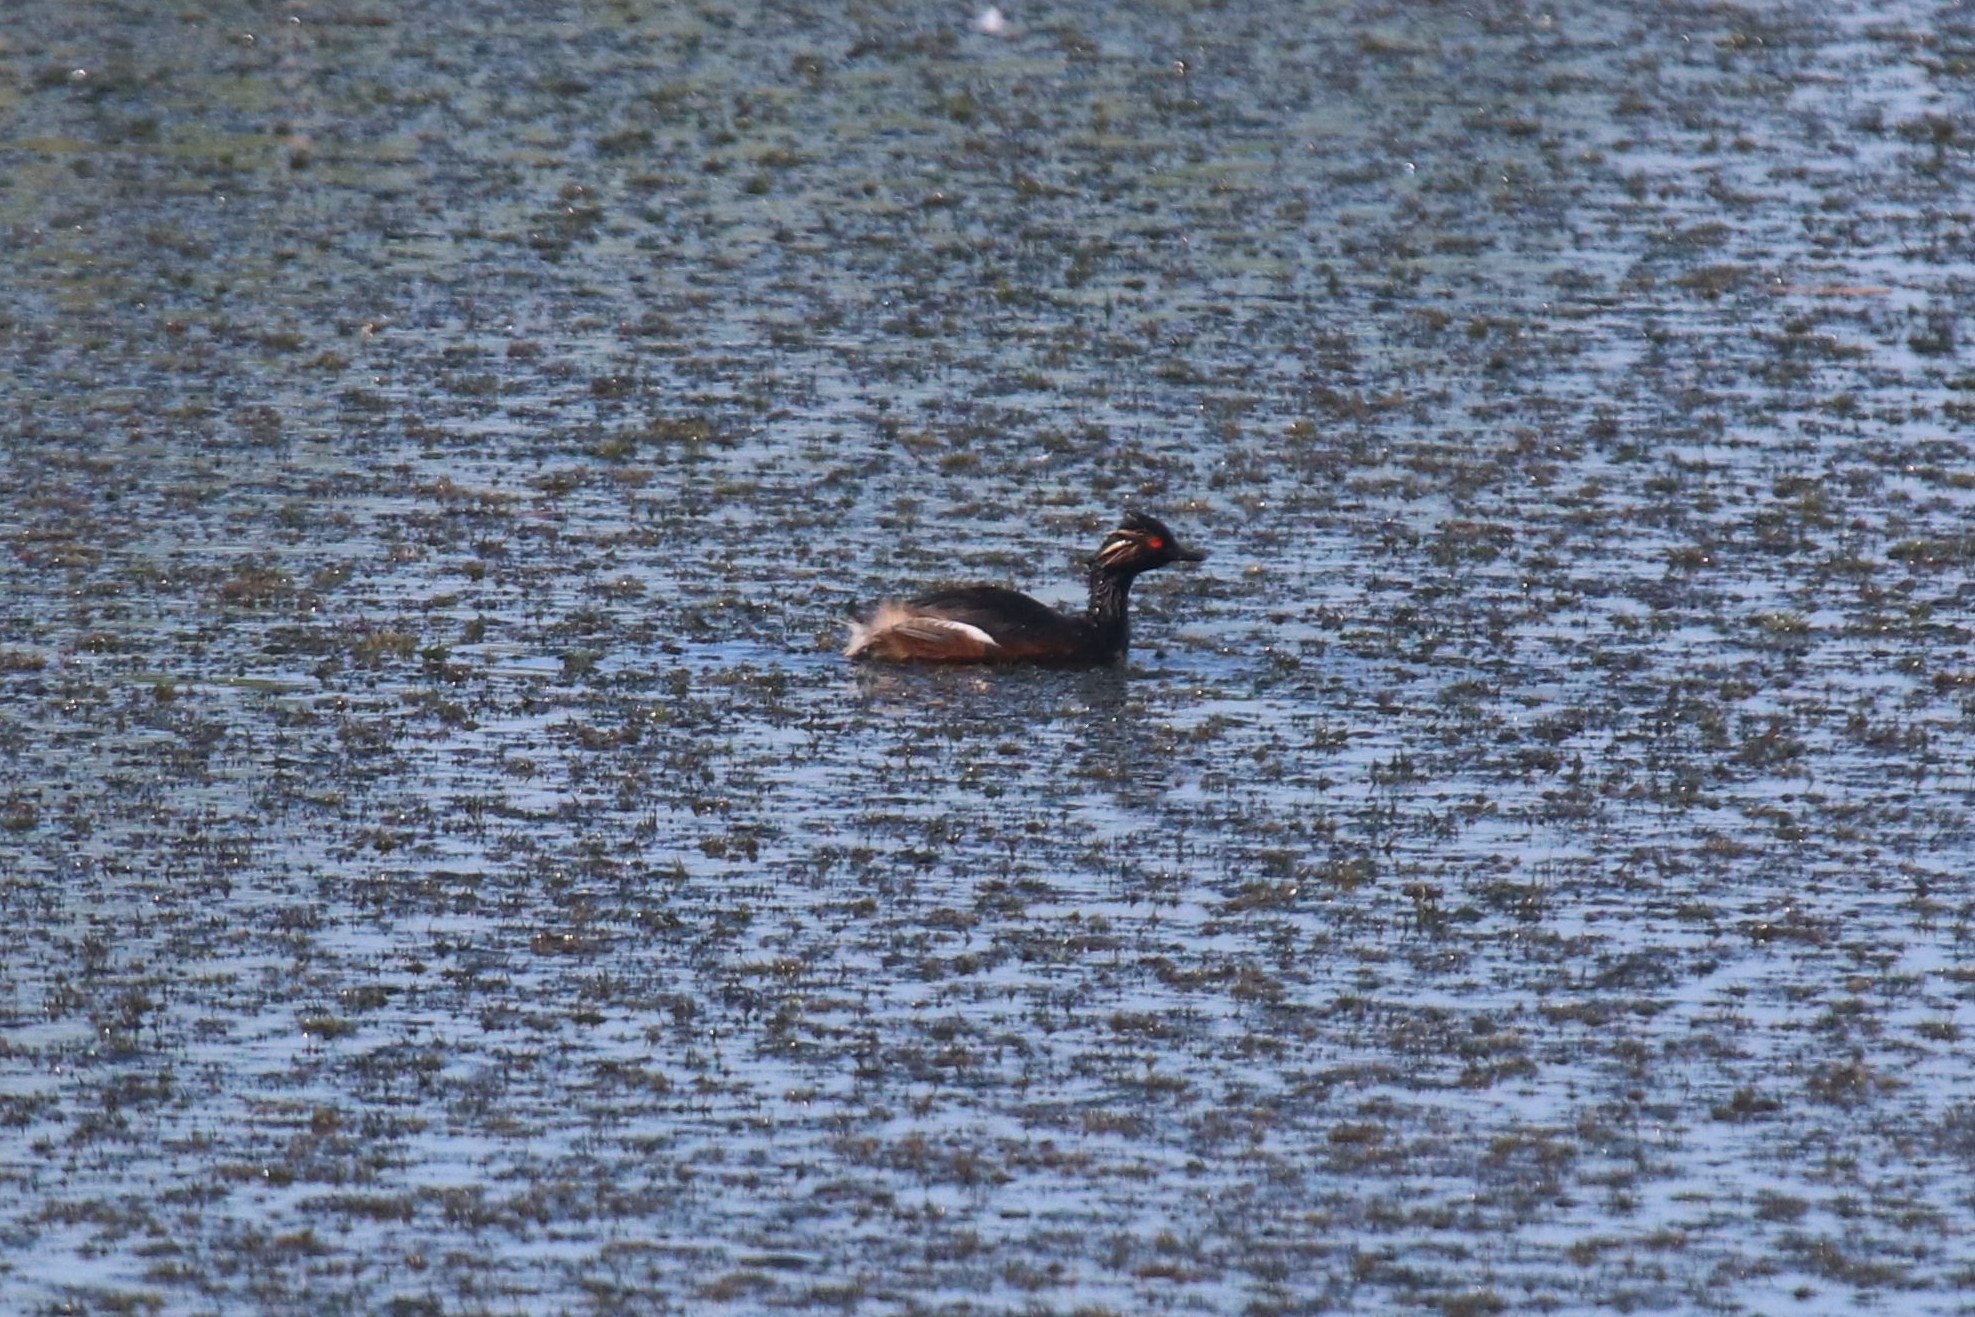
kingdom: Animalia
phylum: Chordata
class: Aves
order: Podicipediformes
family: Podicipedidae
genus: Podiceps
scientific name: Podiceps nigricollis
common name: Black-necked grebe
